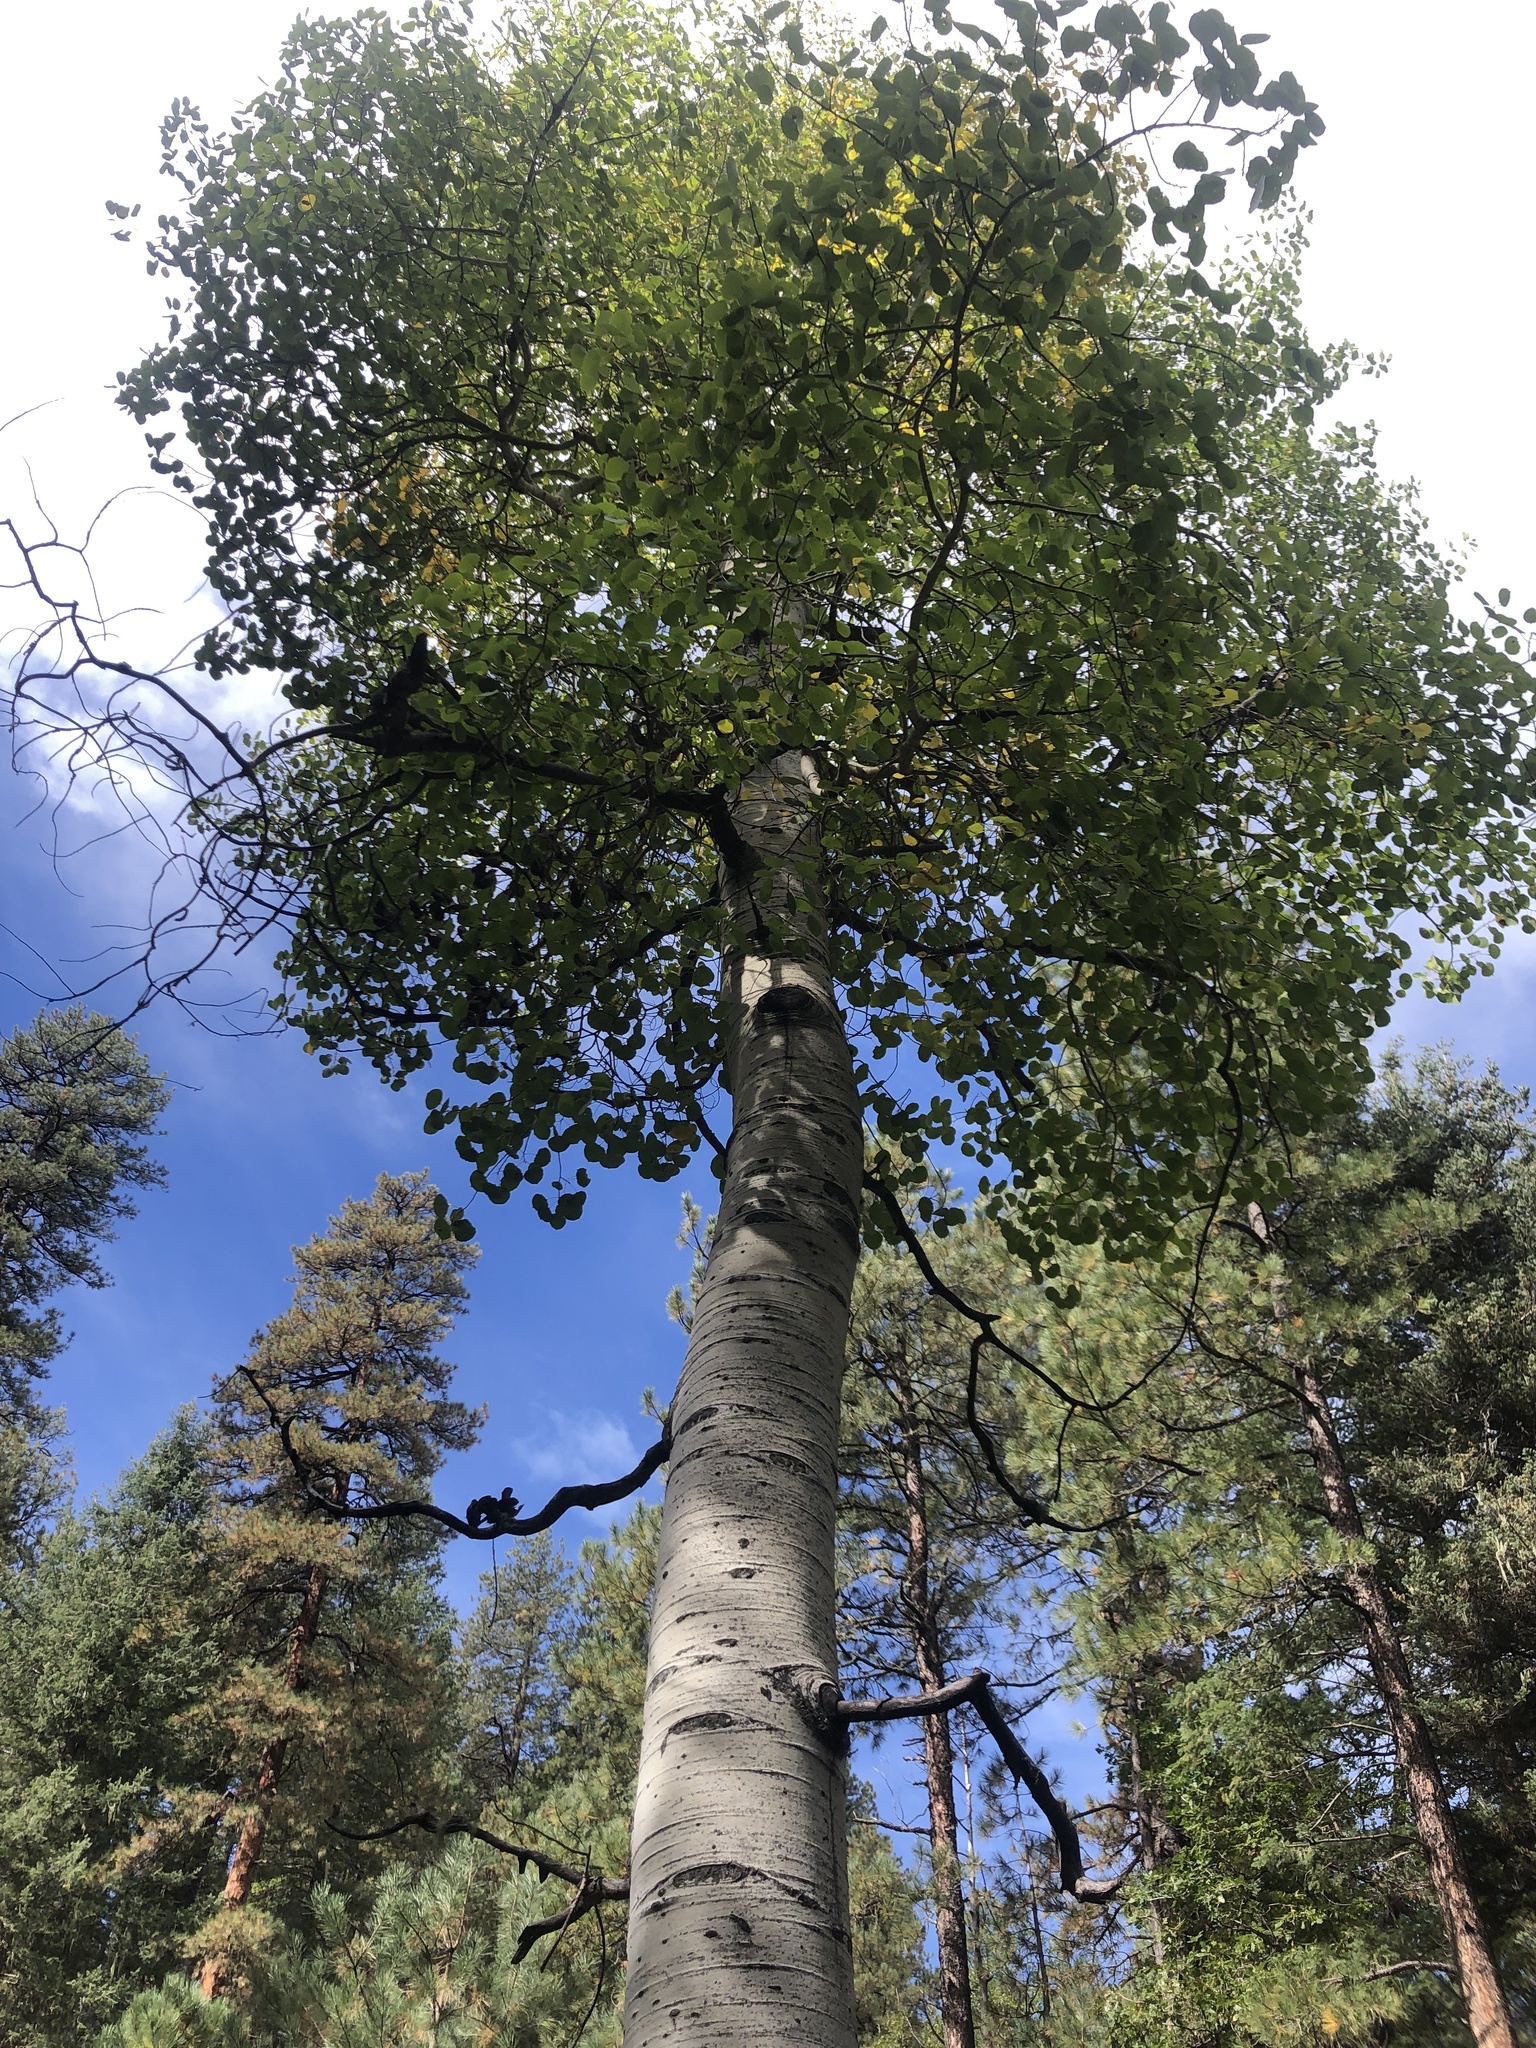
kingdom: Plantae
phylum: Tracheophyta
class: Magnoliopsida
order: Malpighiales
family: Salicaceae
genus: Populus
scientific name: Populus tremuloides
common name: Quaking aspen
